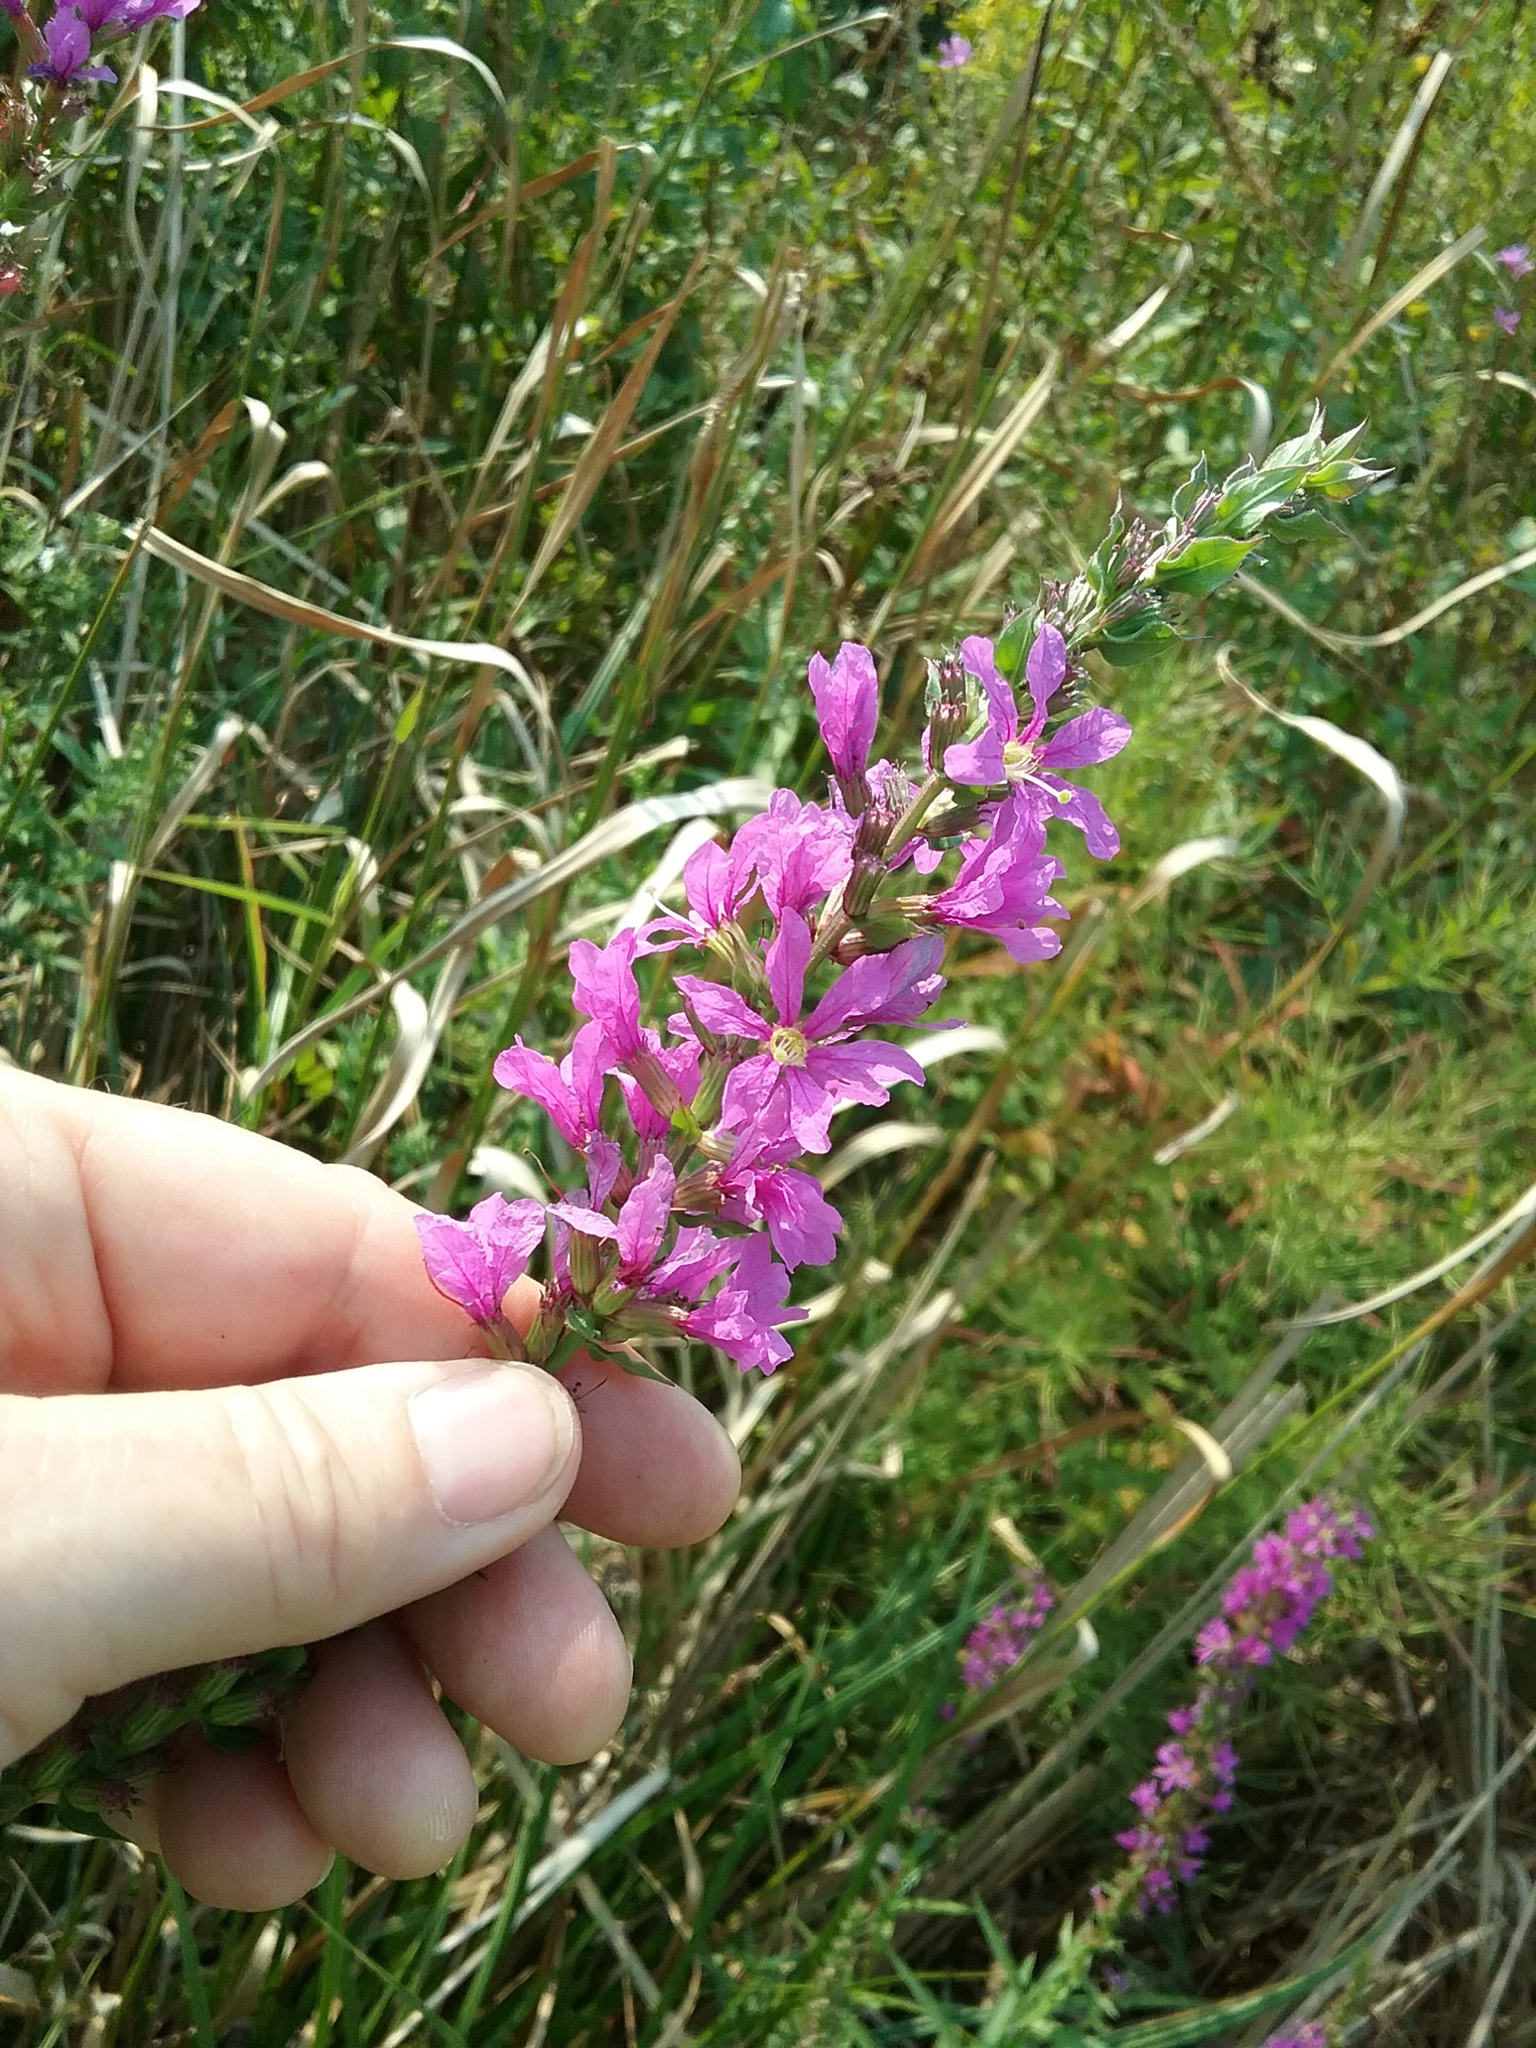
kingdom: Plantae
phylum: Tracheophyta
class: Magnoliopsida
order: Myrtales
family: Lythraceae
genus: Lythrum
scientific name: Lythrum salicaria
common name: Purple loosestrife
